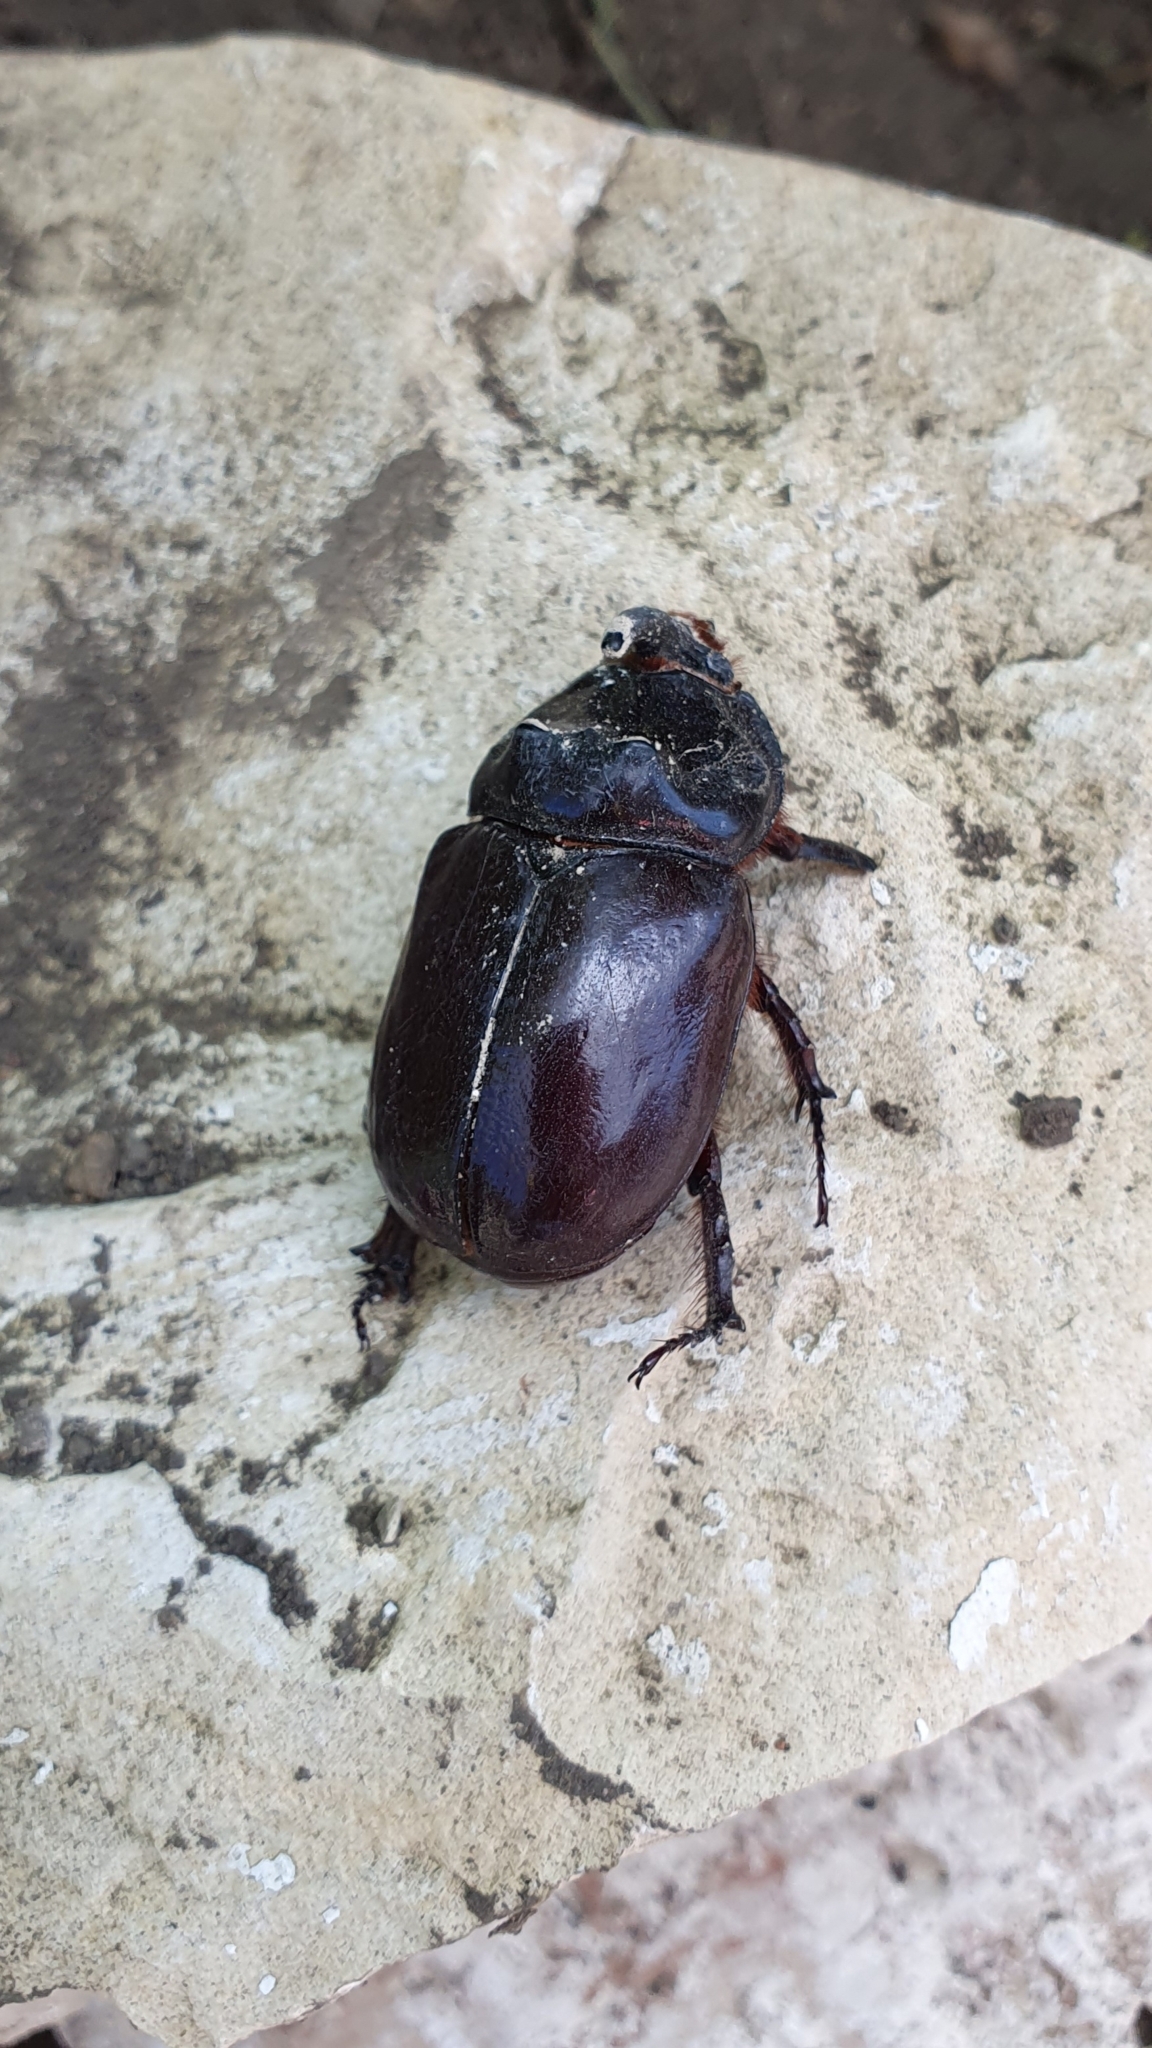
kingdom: Animalia
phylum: Arthropoda
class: Insecta
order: Coleoptera
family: Scarabaeidae
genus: Oryctes
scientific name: Oryctes nasicornis
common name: European rhinoceros beetle
